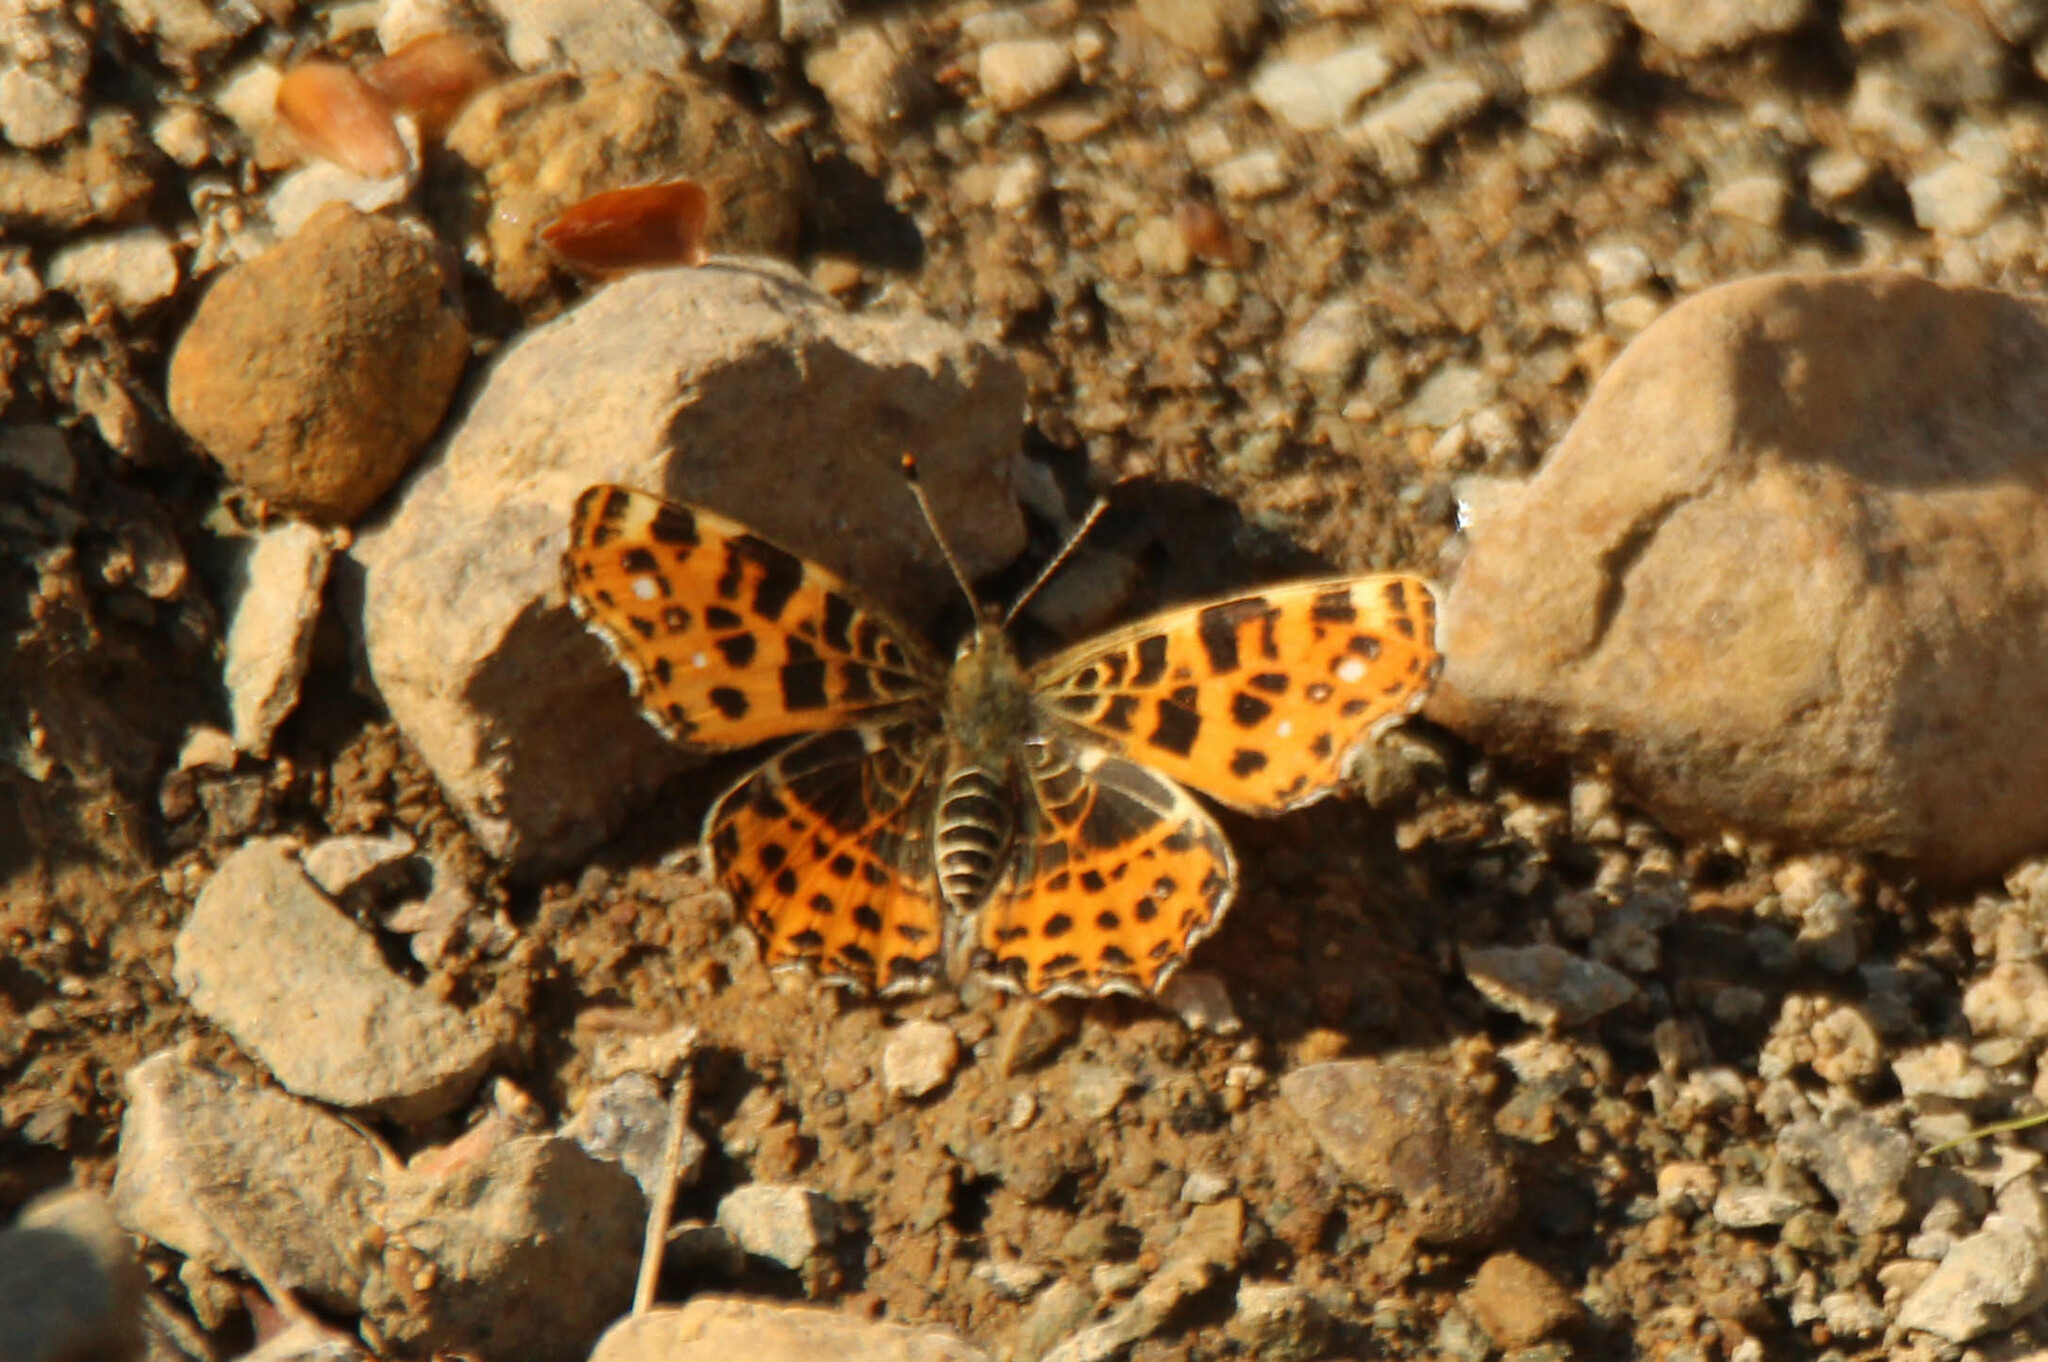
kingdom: Animalia
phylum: Arthropoda
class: Insecta
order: Lepidoptera
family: Nymphalidae
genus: Araschnia
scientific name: Araschnia levana
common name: Map butterfly
